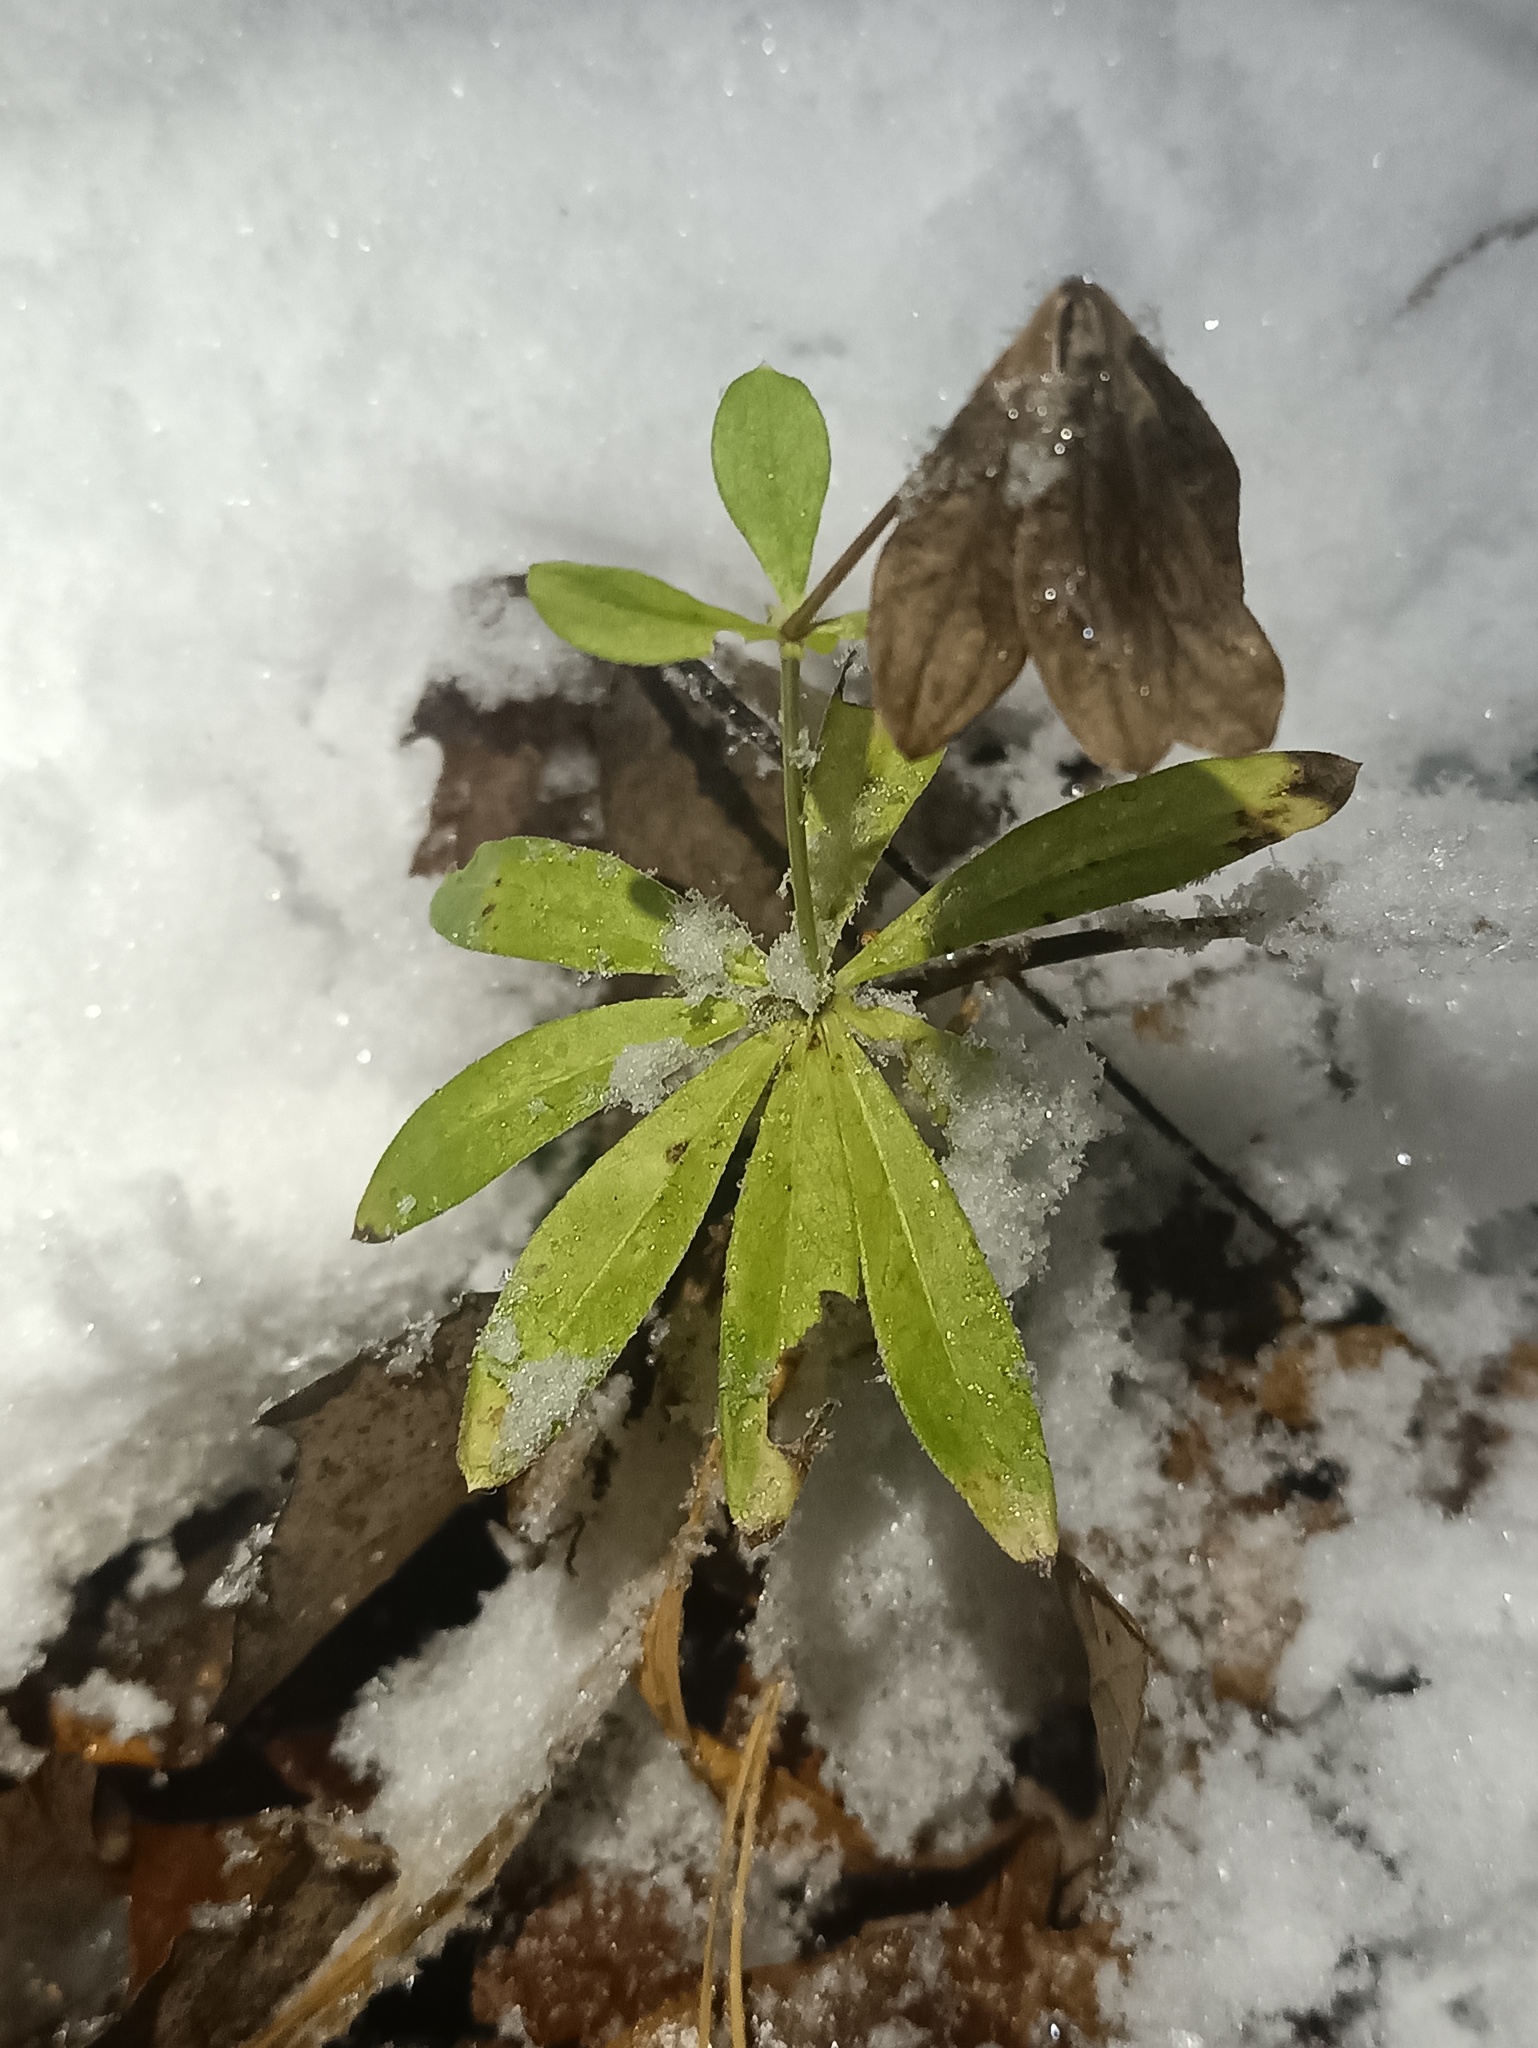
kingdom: Plantae
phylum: Tracheophyta
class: Magnoliopsida
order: Gentianales
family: Rubiaceae
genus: Galium
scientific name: Galium odoratum
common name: Sweet woodruff
